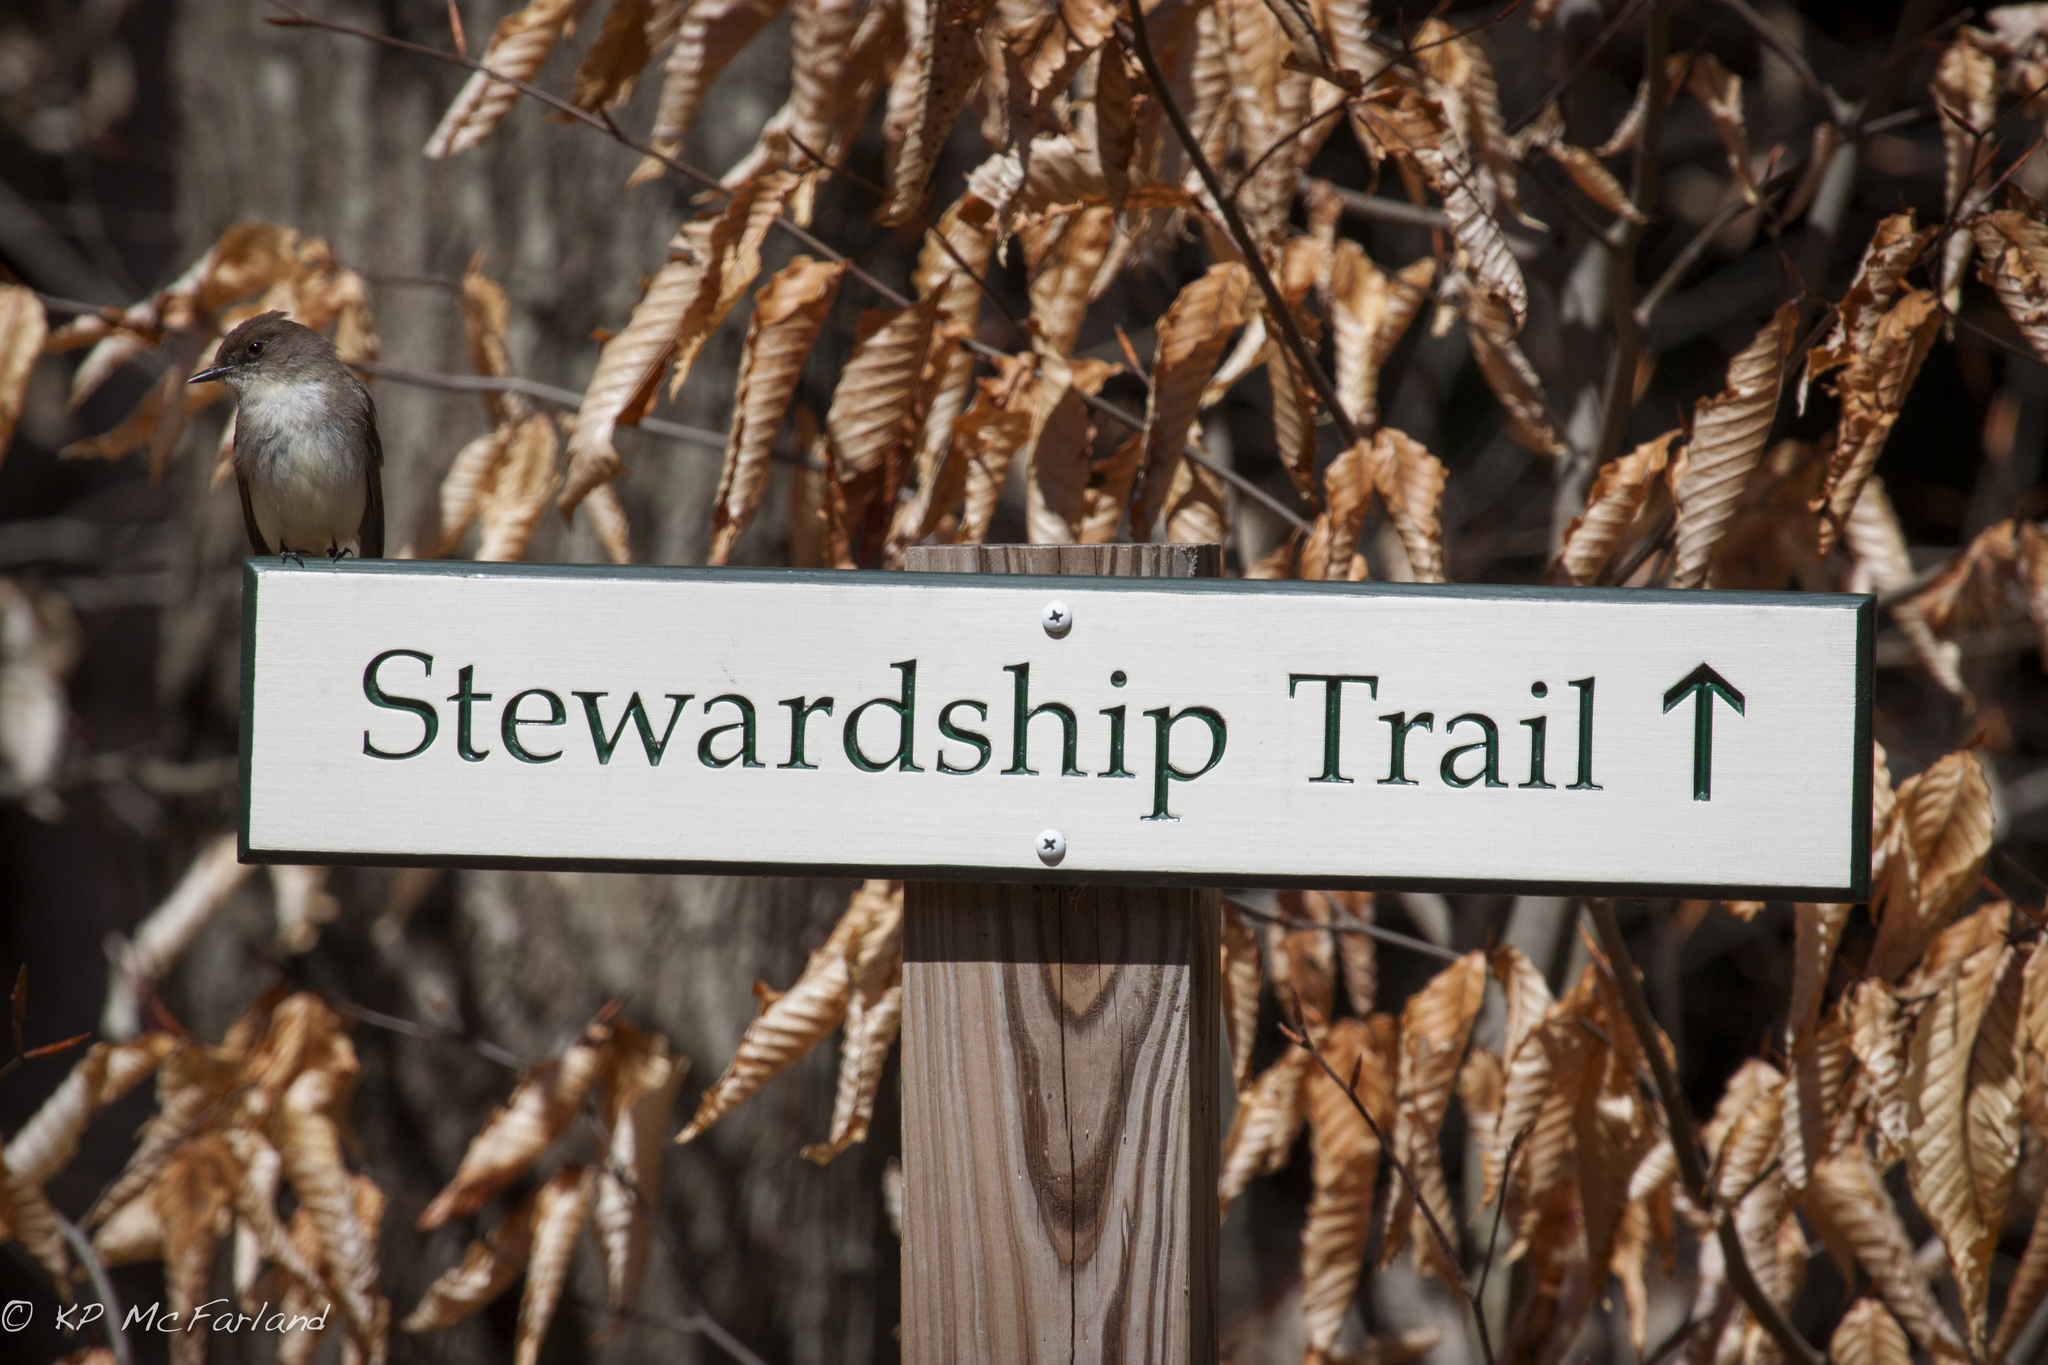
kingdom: Animalia
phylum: Chordata
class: Aves
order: Passeriformes
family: Tyrannidae
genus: Sayornis
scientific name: Sayornis phoebe
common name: Eastern phoebe
